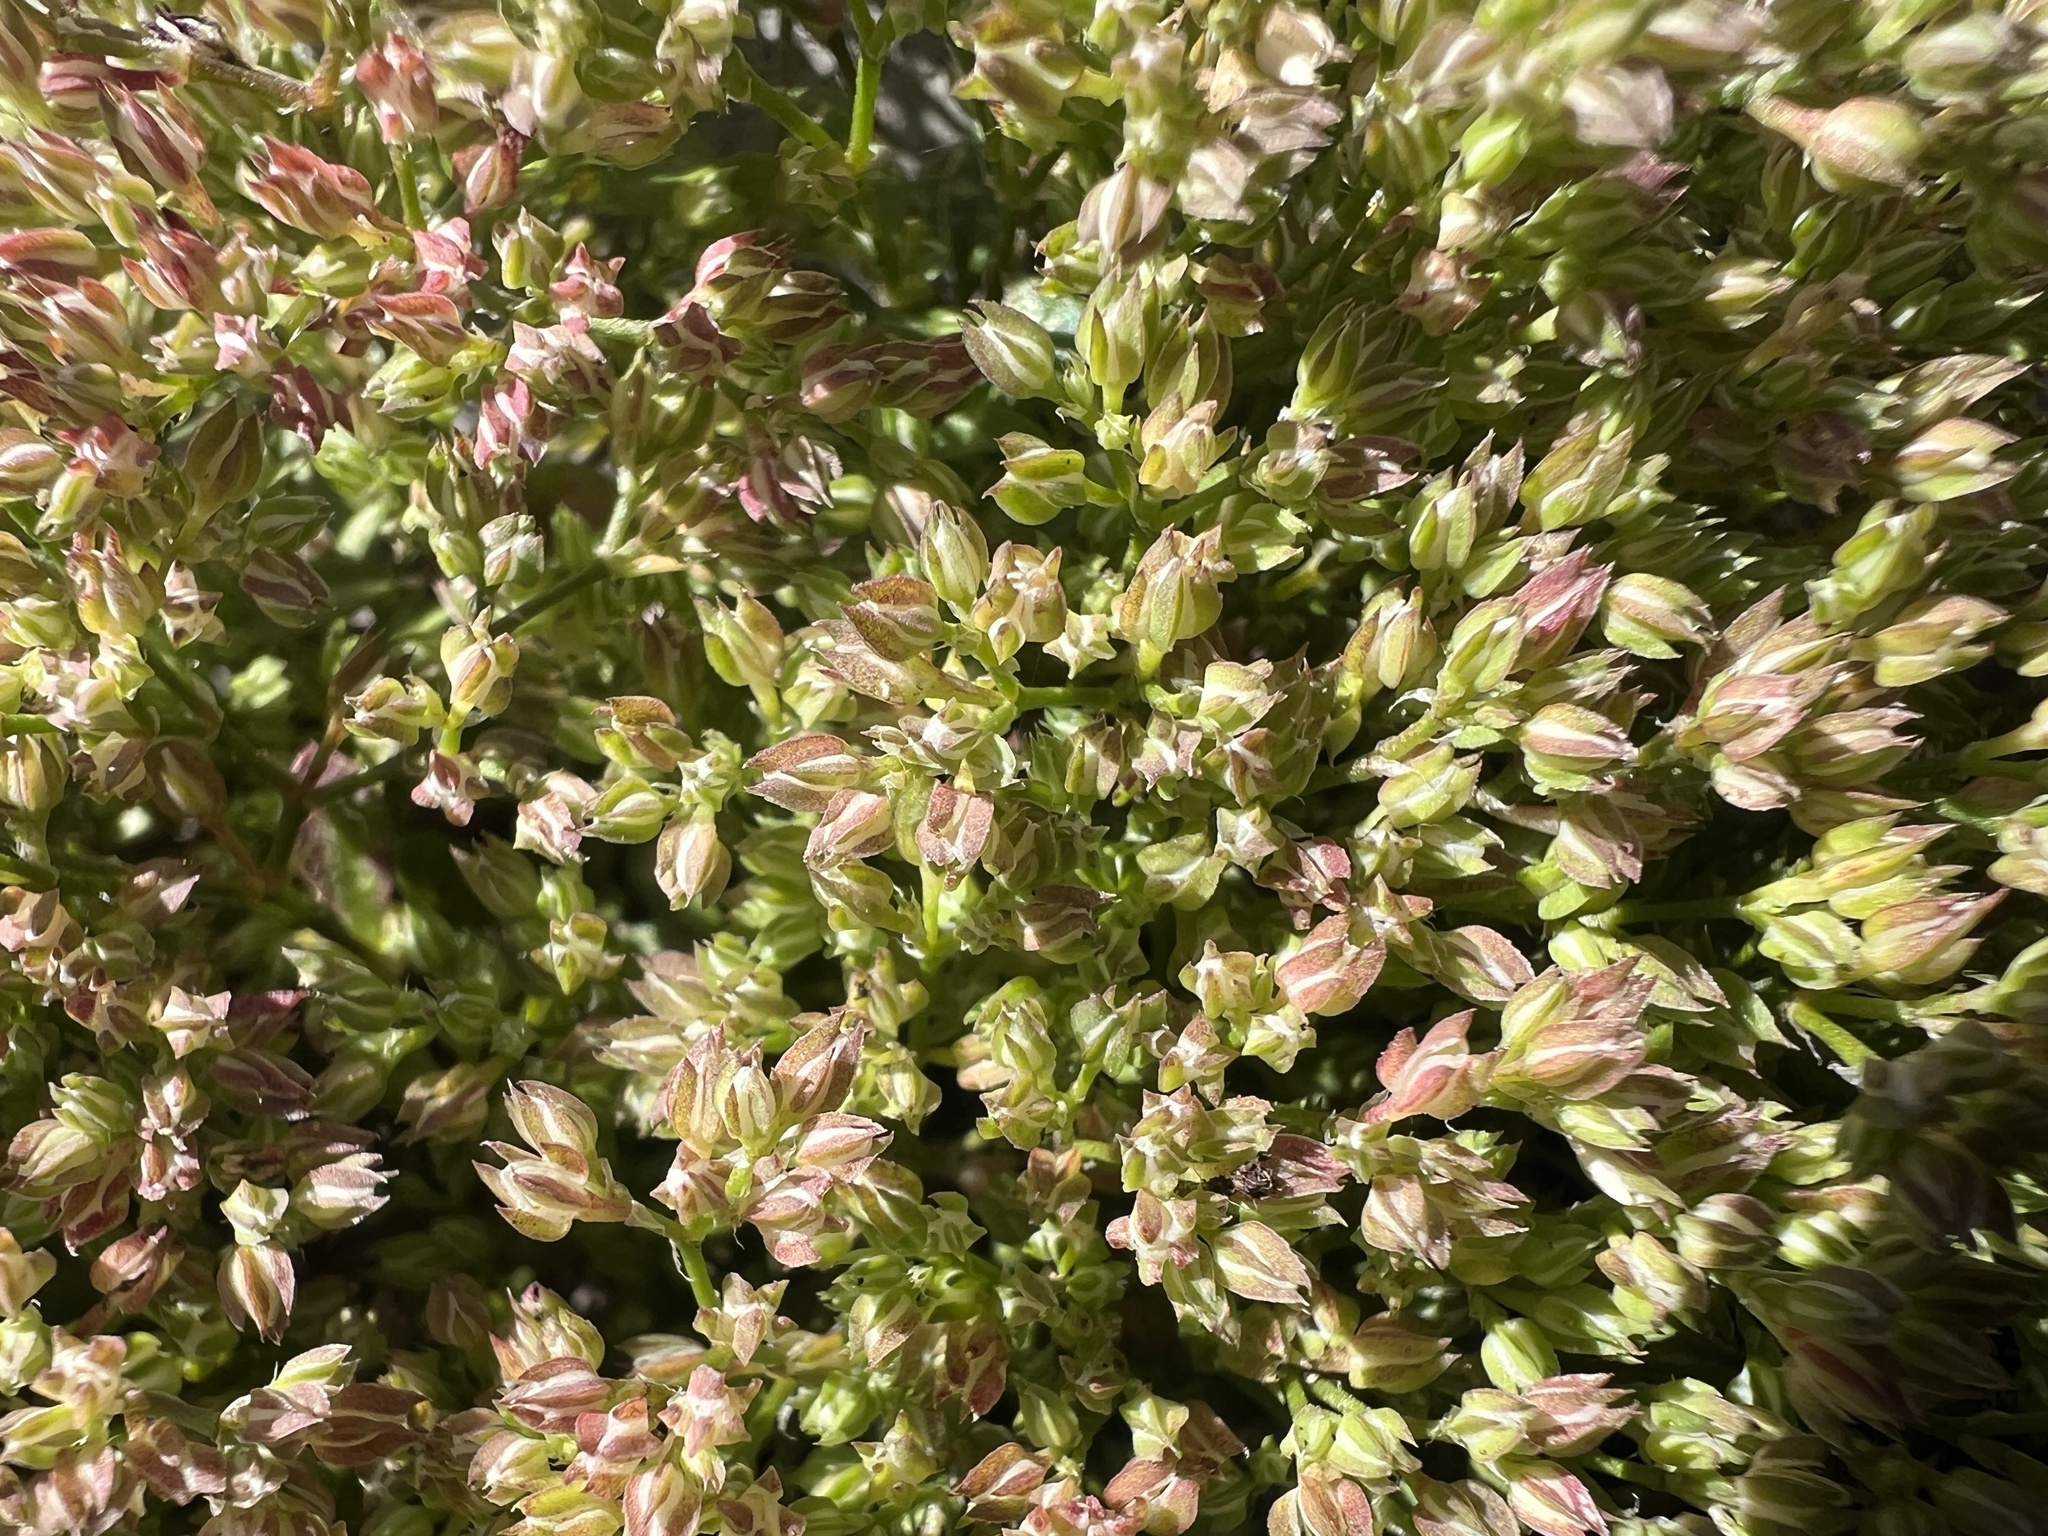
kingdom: Plantae
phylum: Tracheophyta
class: Magnoliopsida
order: Caryophyllales
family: Caryophyllaceae
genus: Polycarpon
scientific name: Polycarpon tetraphyllum
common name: Four-leaved all-seed
